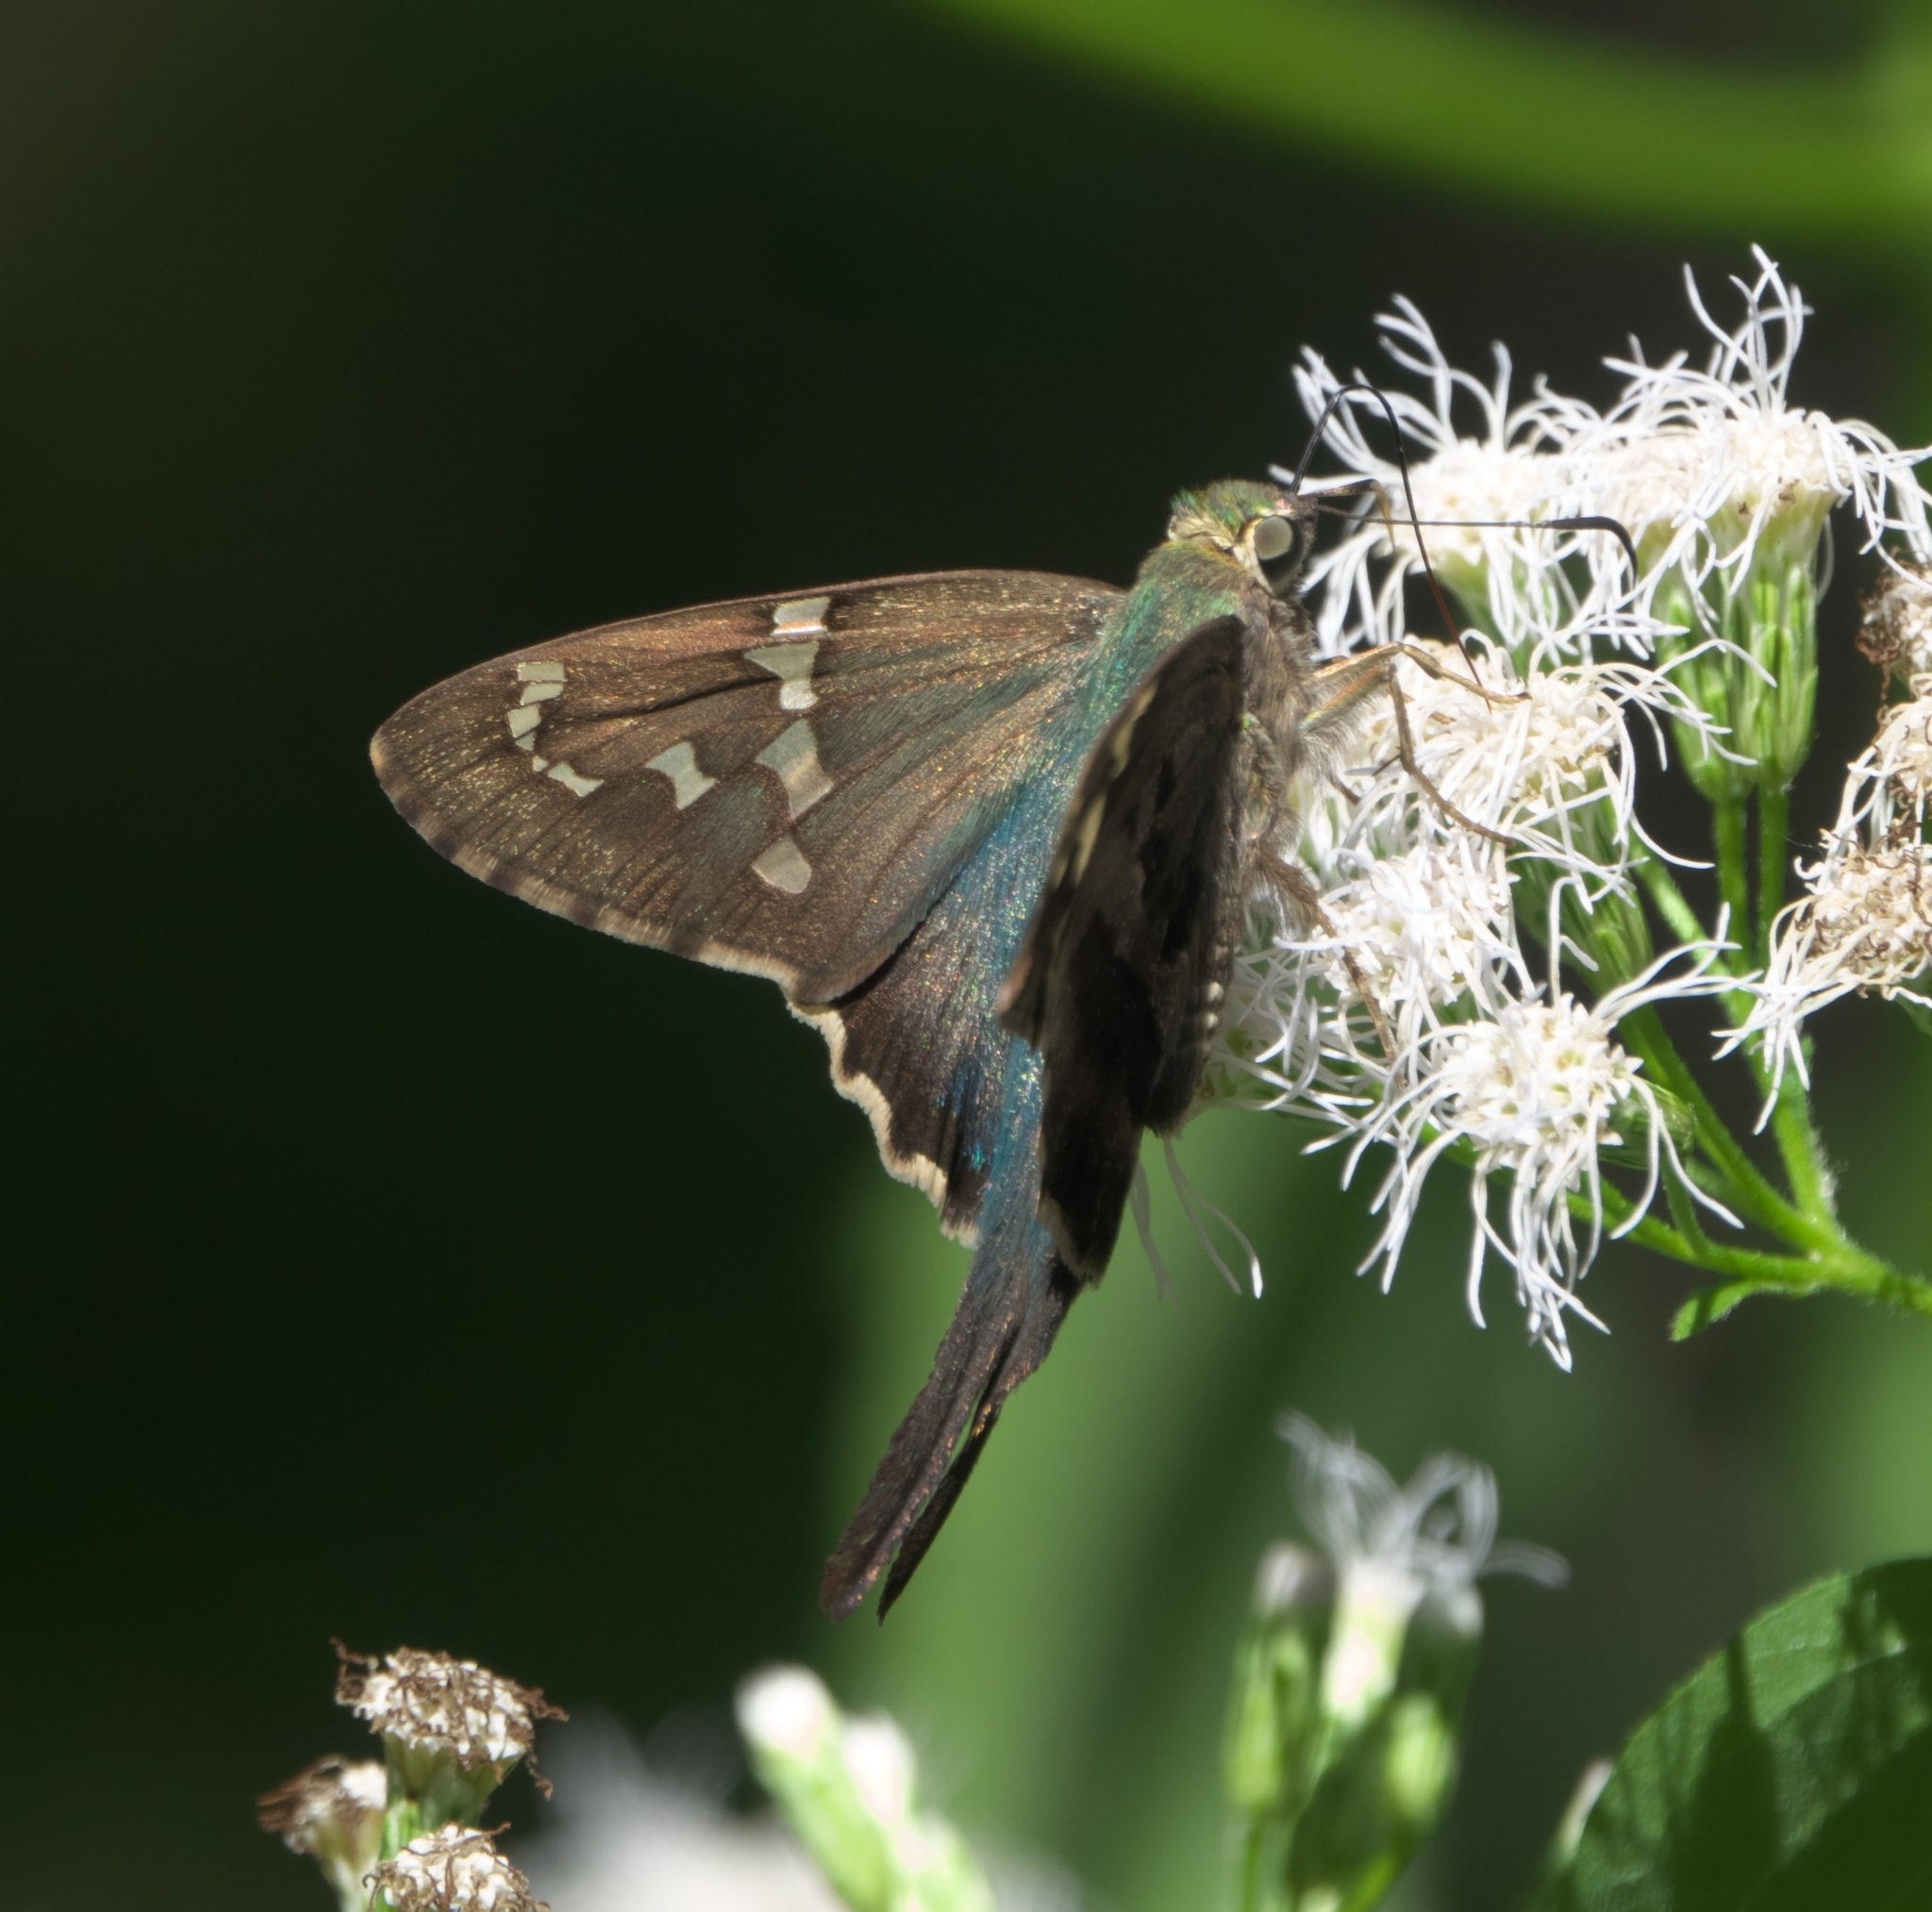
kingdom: Animalia
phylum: Arthropoda
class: Insecta
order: Lepidoptera
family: Hesperiidae
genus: Urbanus
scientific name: Urbanus proteus
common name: Long-tailed skipper
